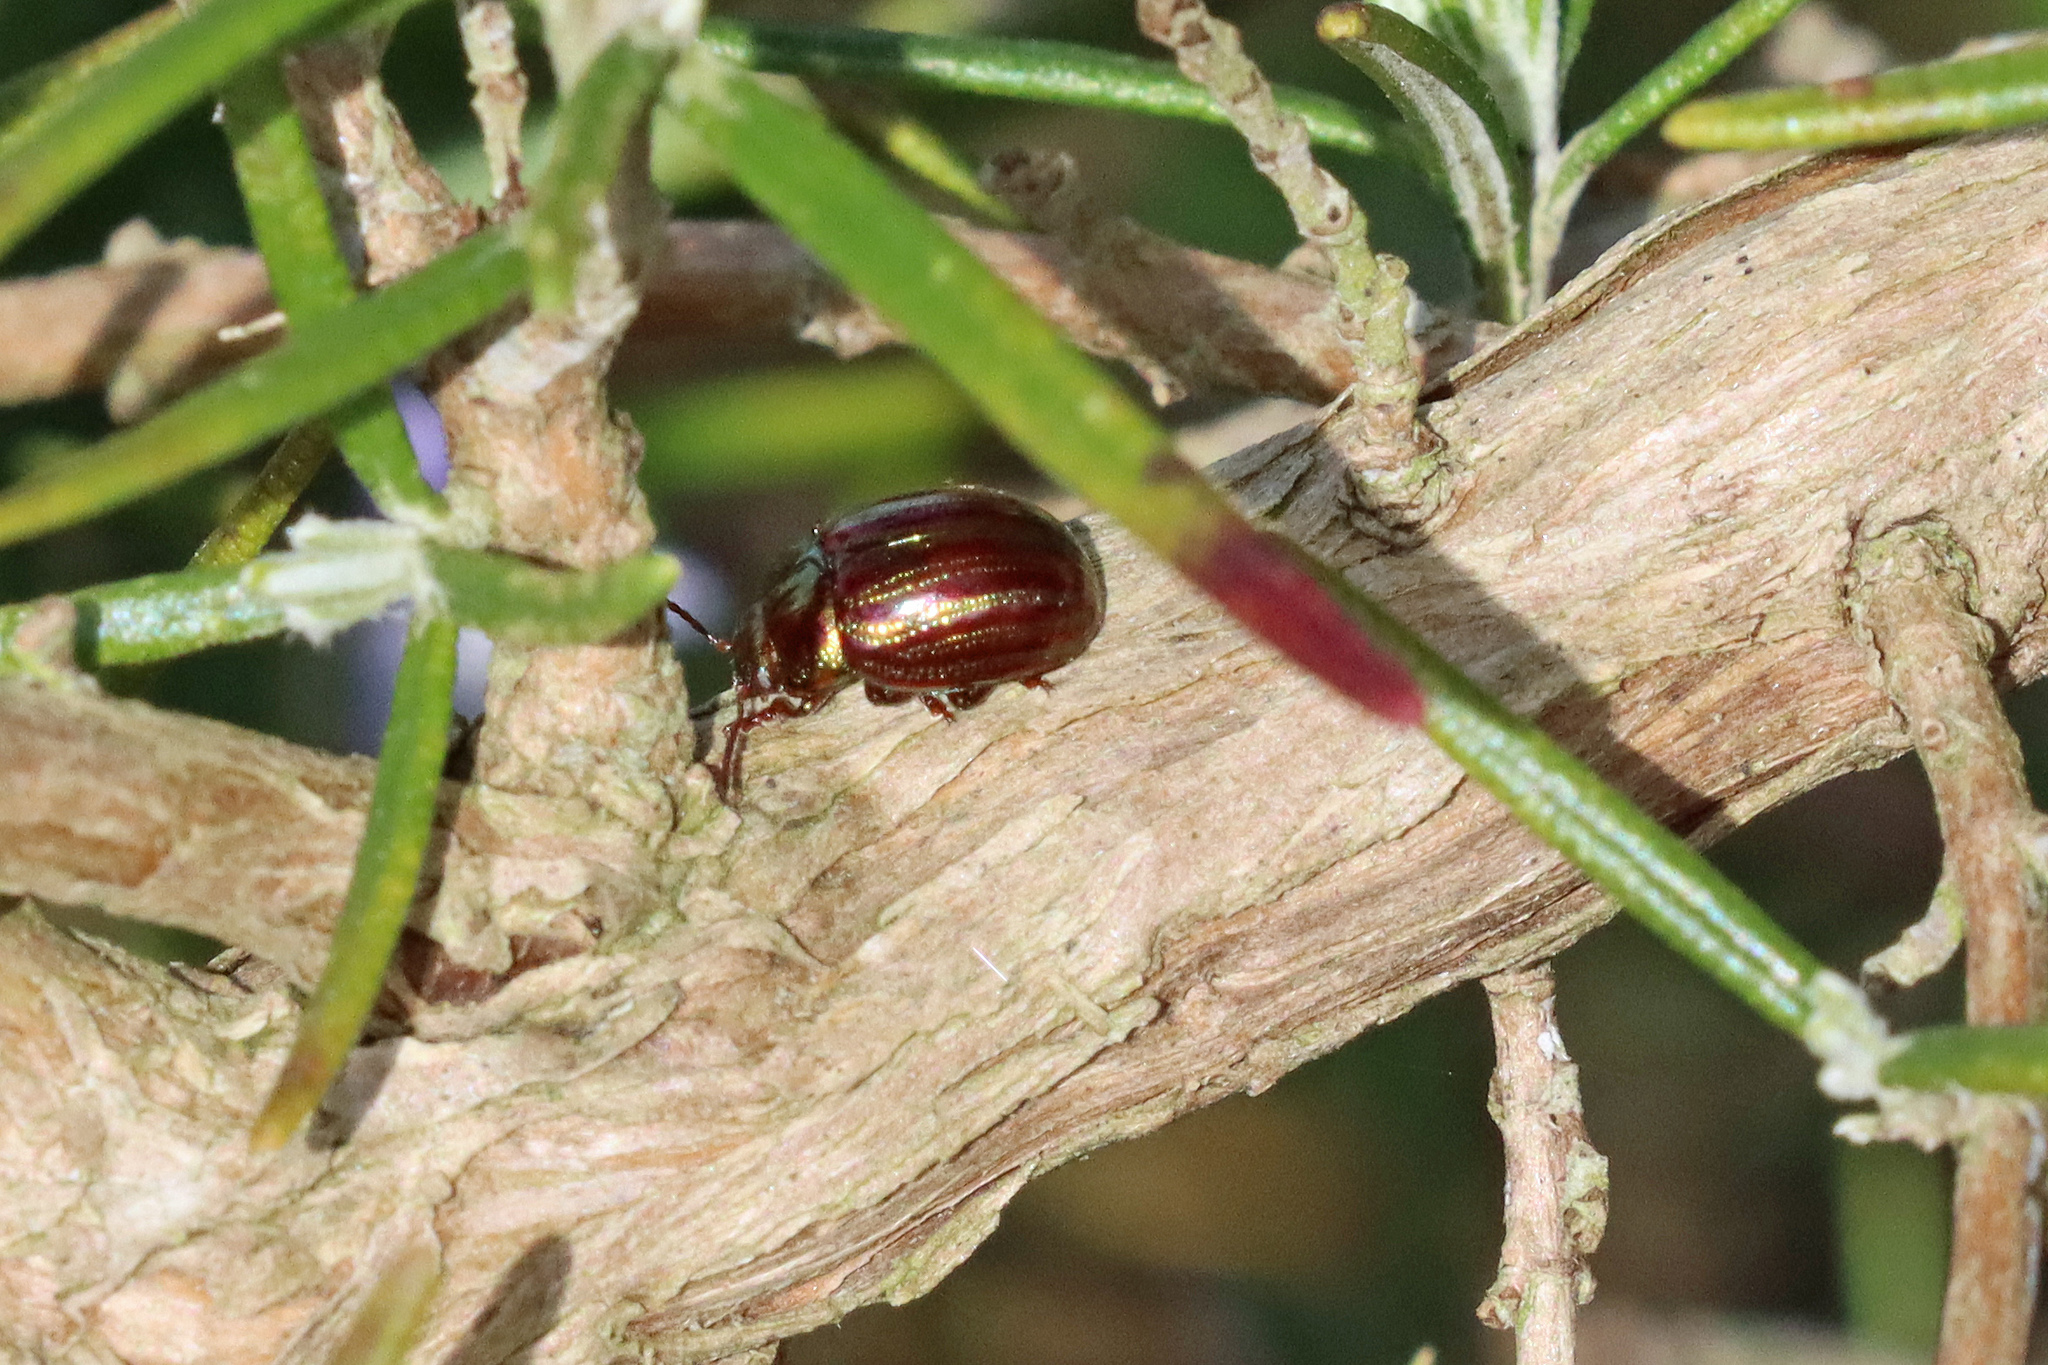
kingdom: Animalia
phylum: Arthropoda
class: Insecta
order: Coleoptera
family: Chrysomelidae
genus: Chrysolina
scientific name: Chrysolina americana
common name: Rosemary beetle
